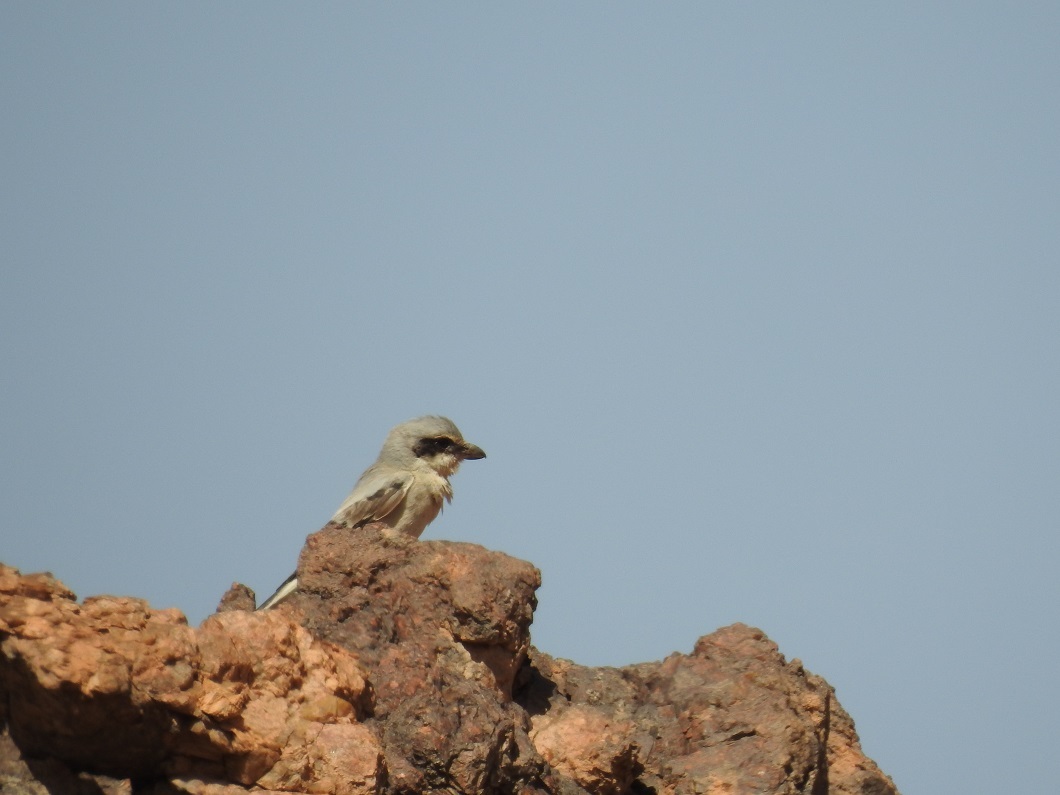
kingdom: Animalia
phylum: Chordata
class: Aves
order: Passeriformes
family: Laniidae
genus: Lanius
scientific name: Lanius excubitor
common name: Great grey shrike
